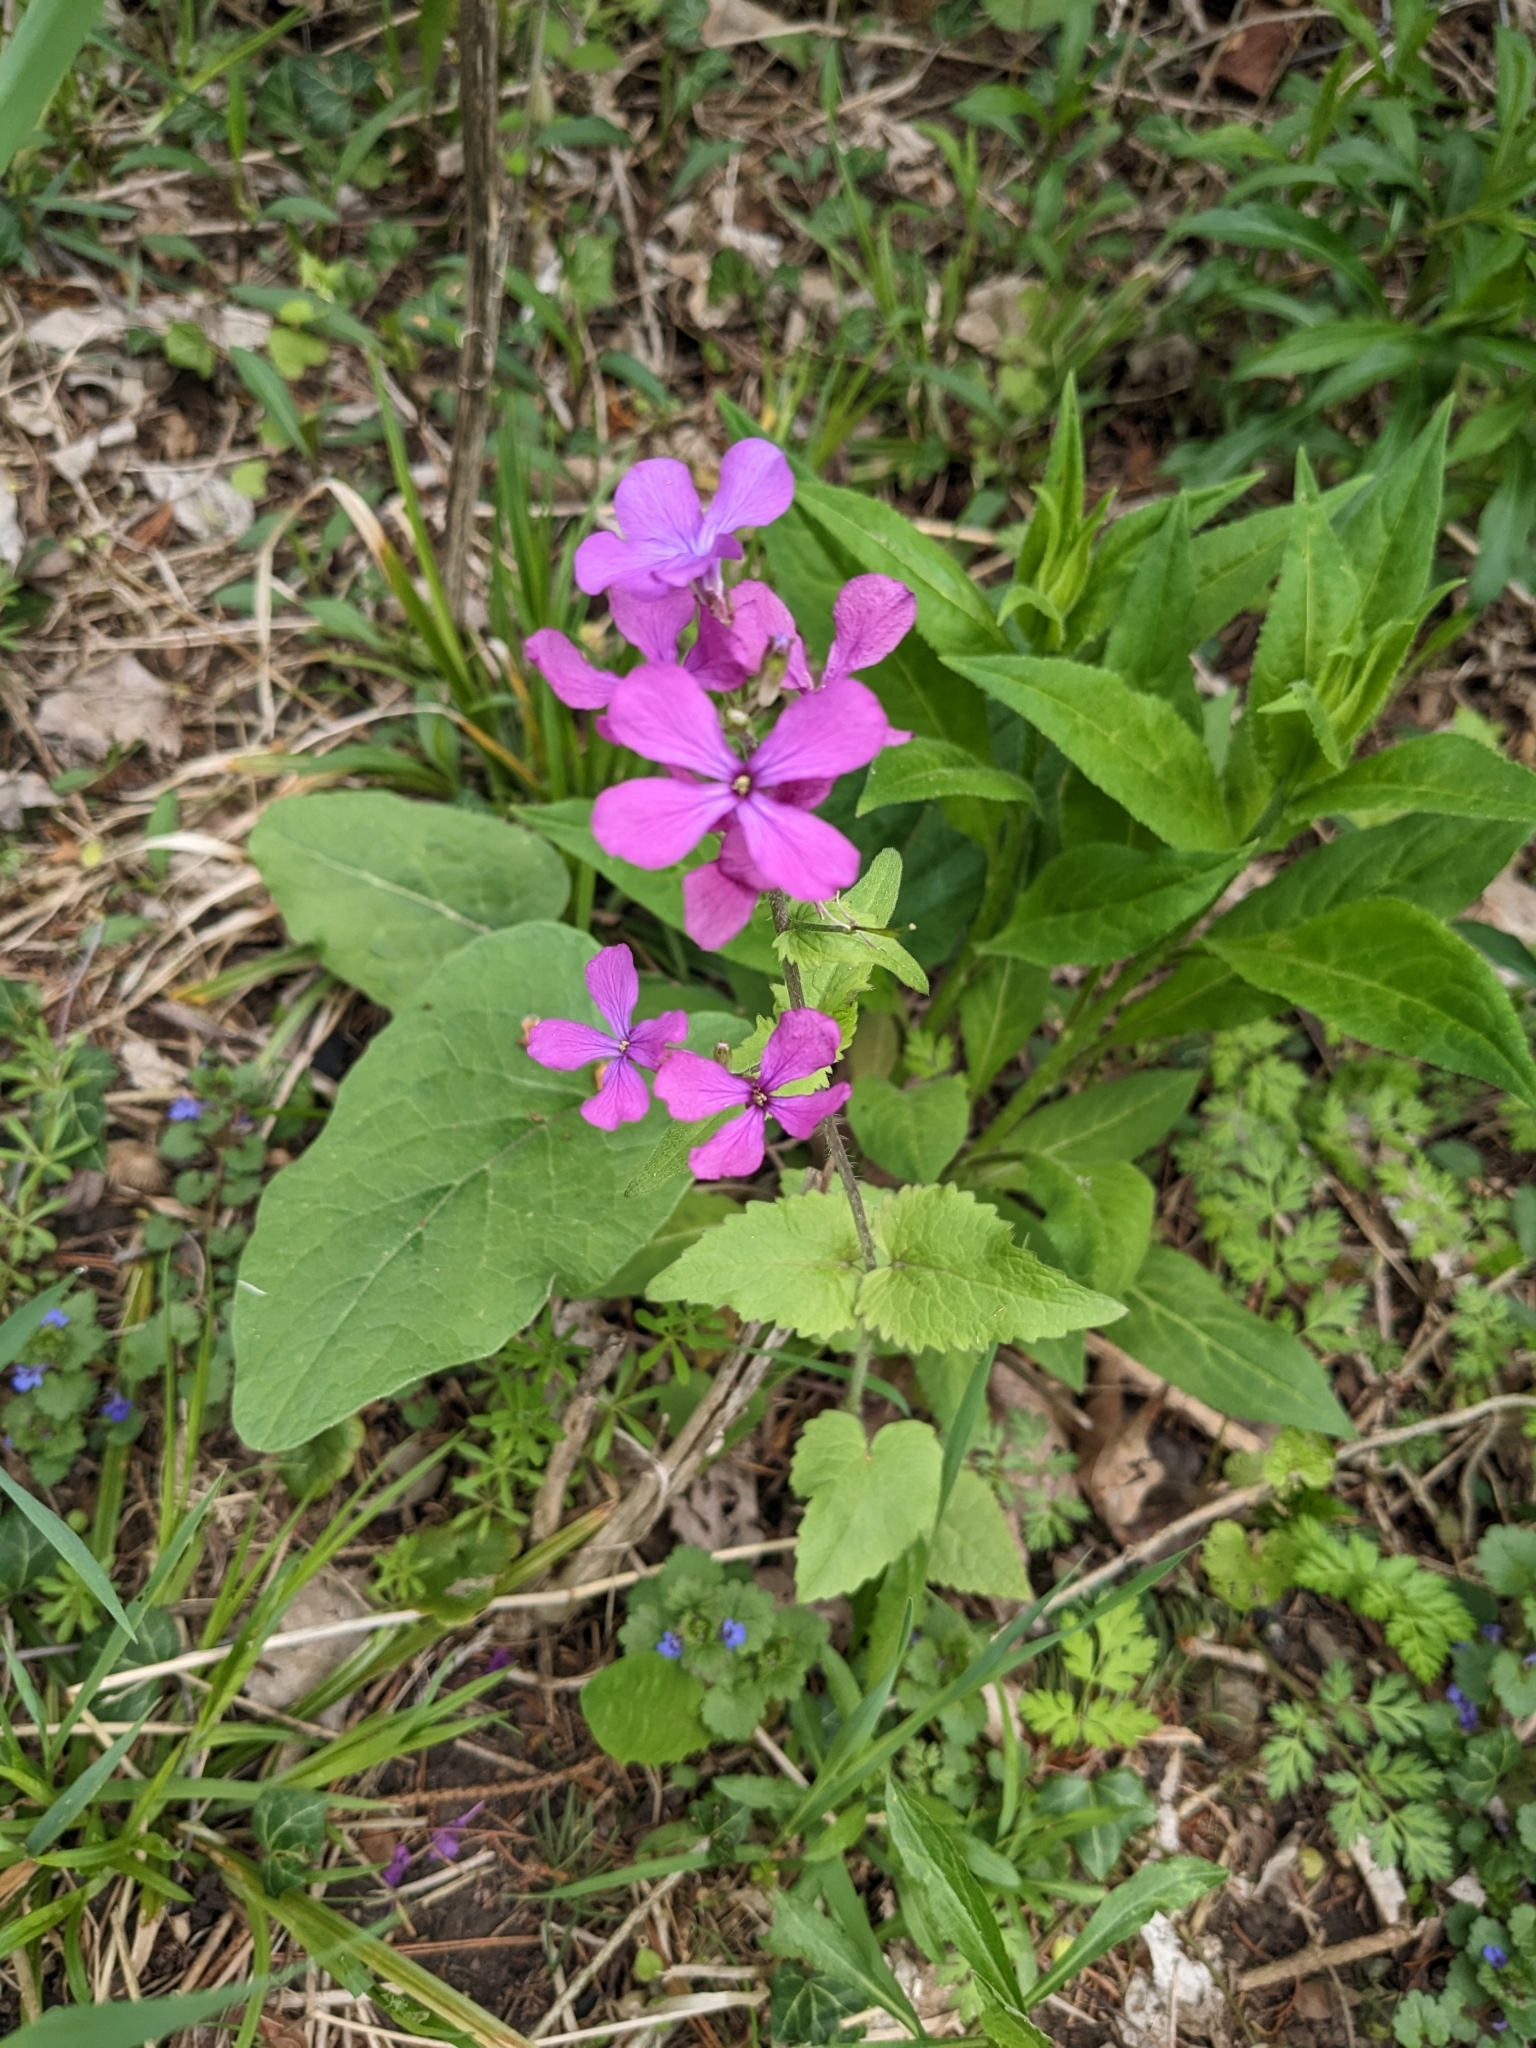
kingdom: Plantae
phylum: Tracheophyta
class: Magnoliopsida
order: Brassicales
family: Brassicaceae
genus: Lunaria
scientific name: Lunaria annua
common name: Honesty
